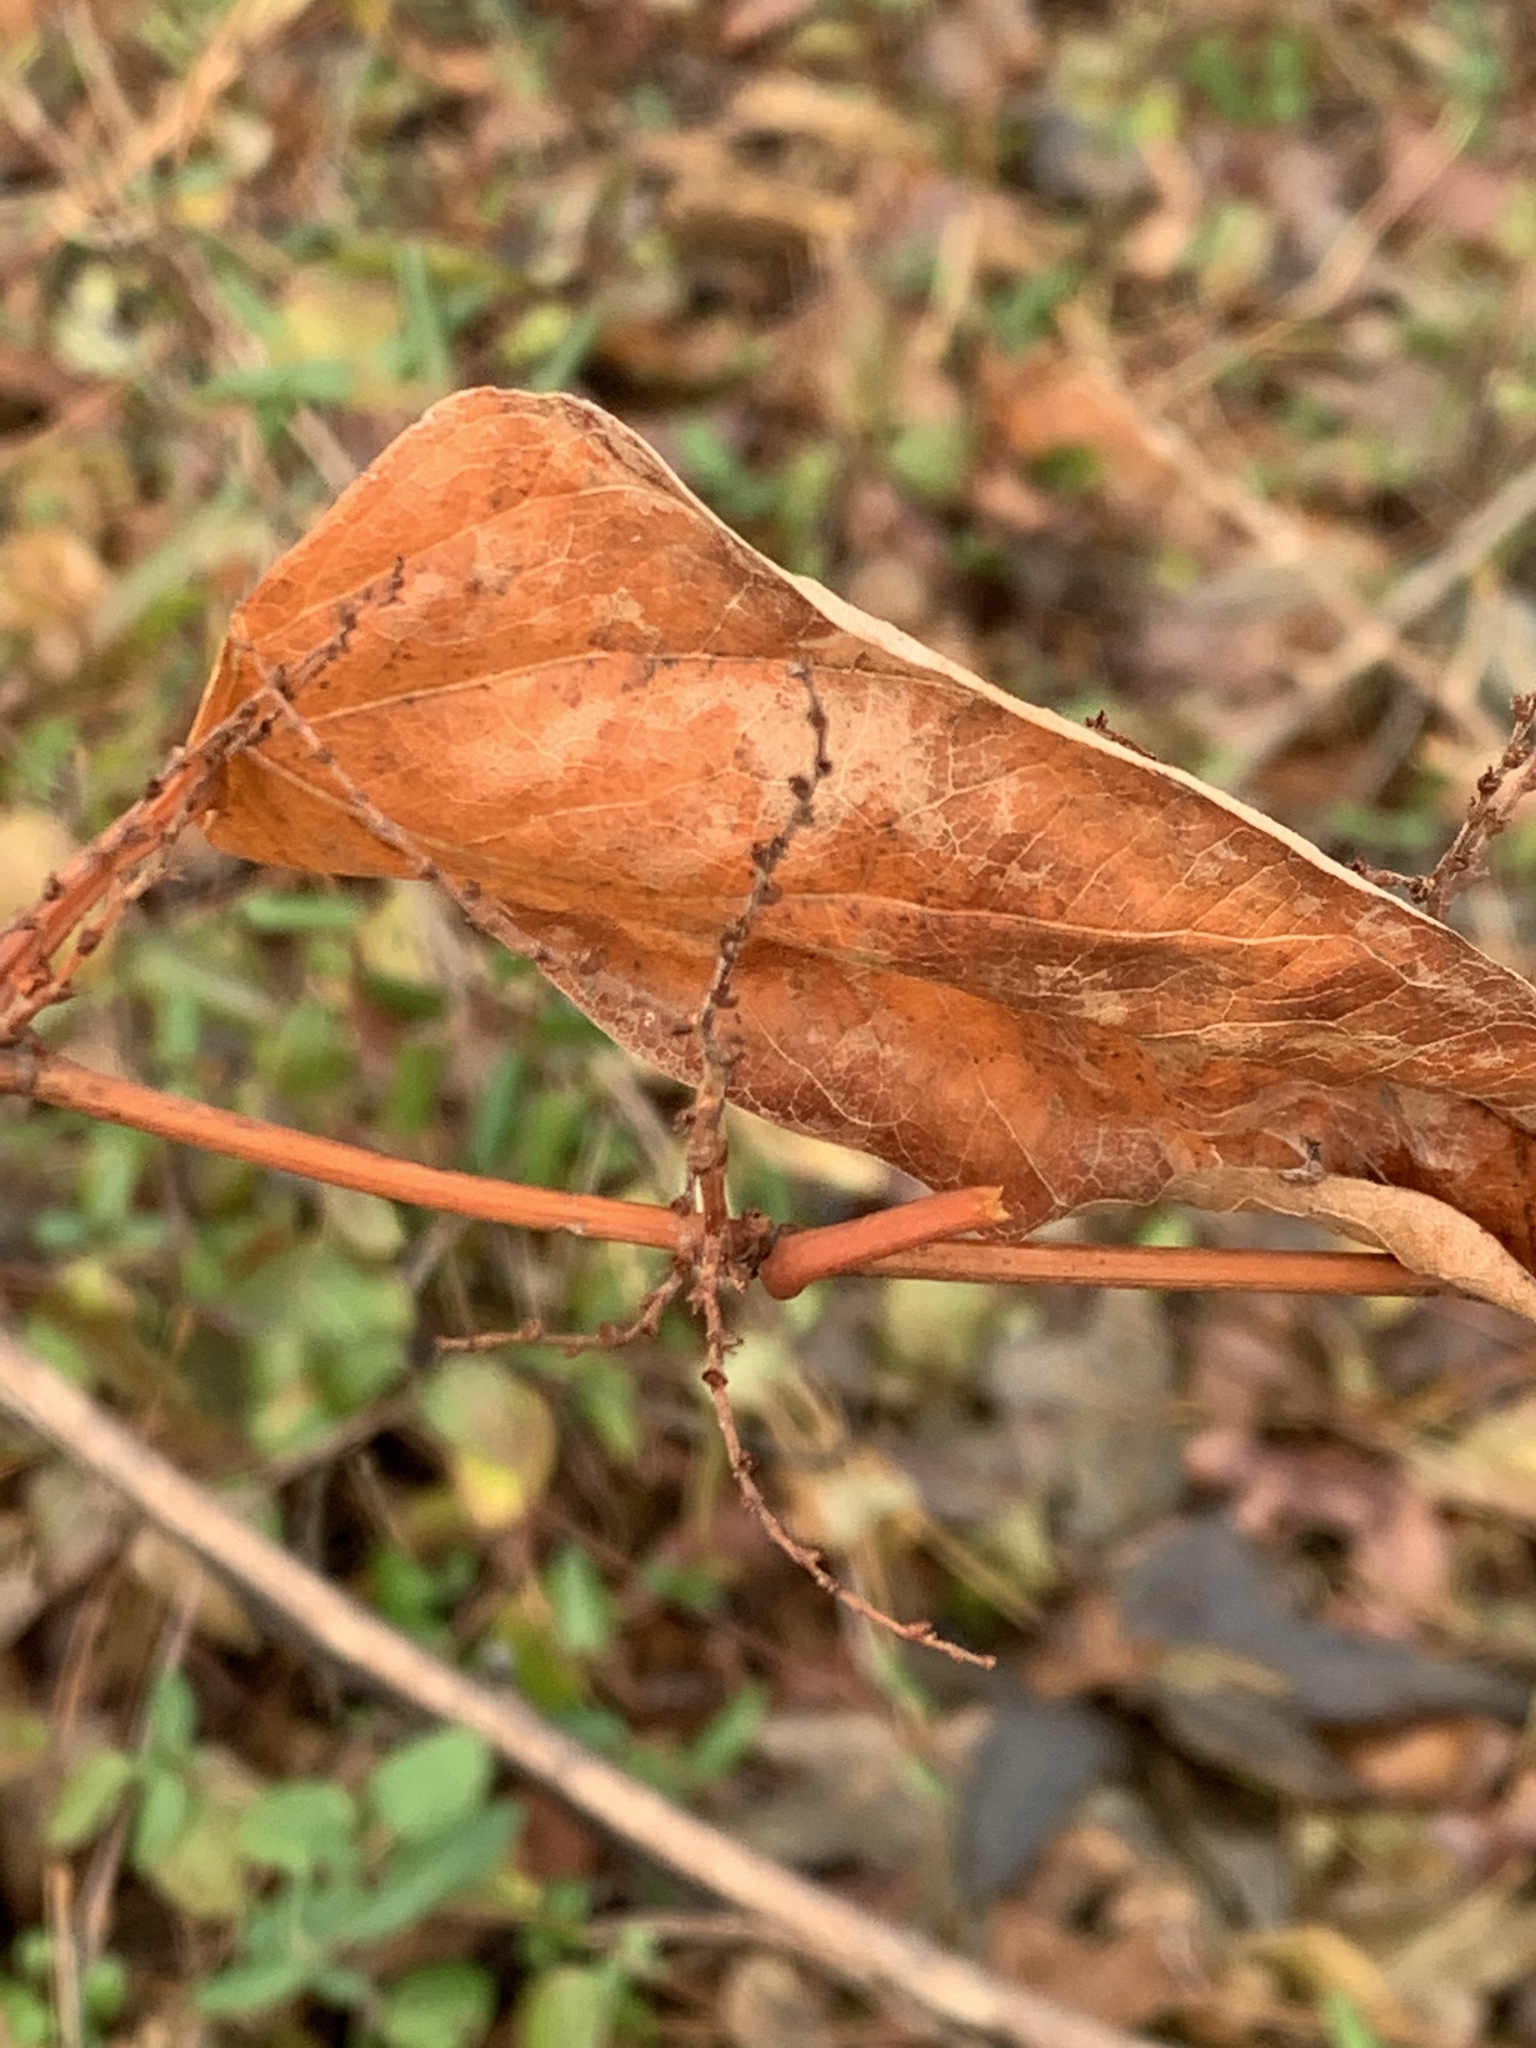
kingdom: Plantae
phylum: Tracheophyta
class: Magnoliopsida
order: Caryophyllales
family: Polygonaceae
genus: Reynoutria
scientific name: Reynoutria japonica
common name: Japanese knotweed
